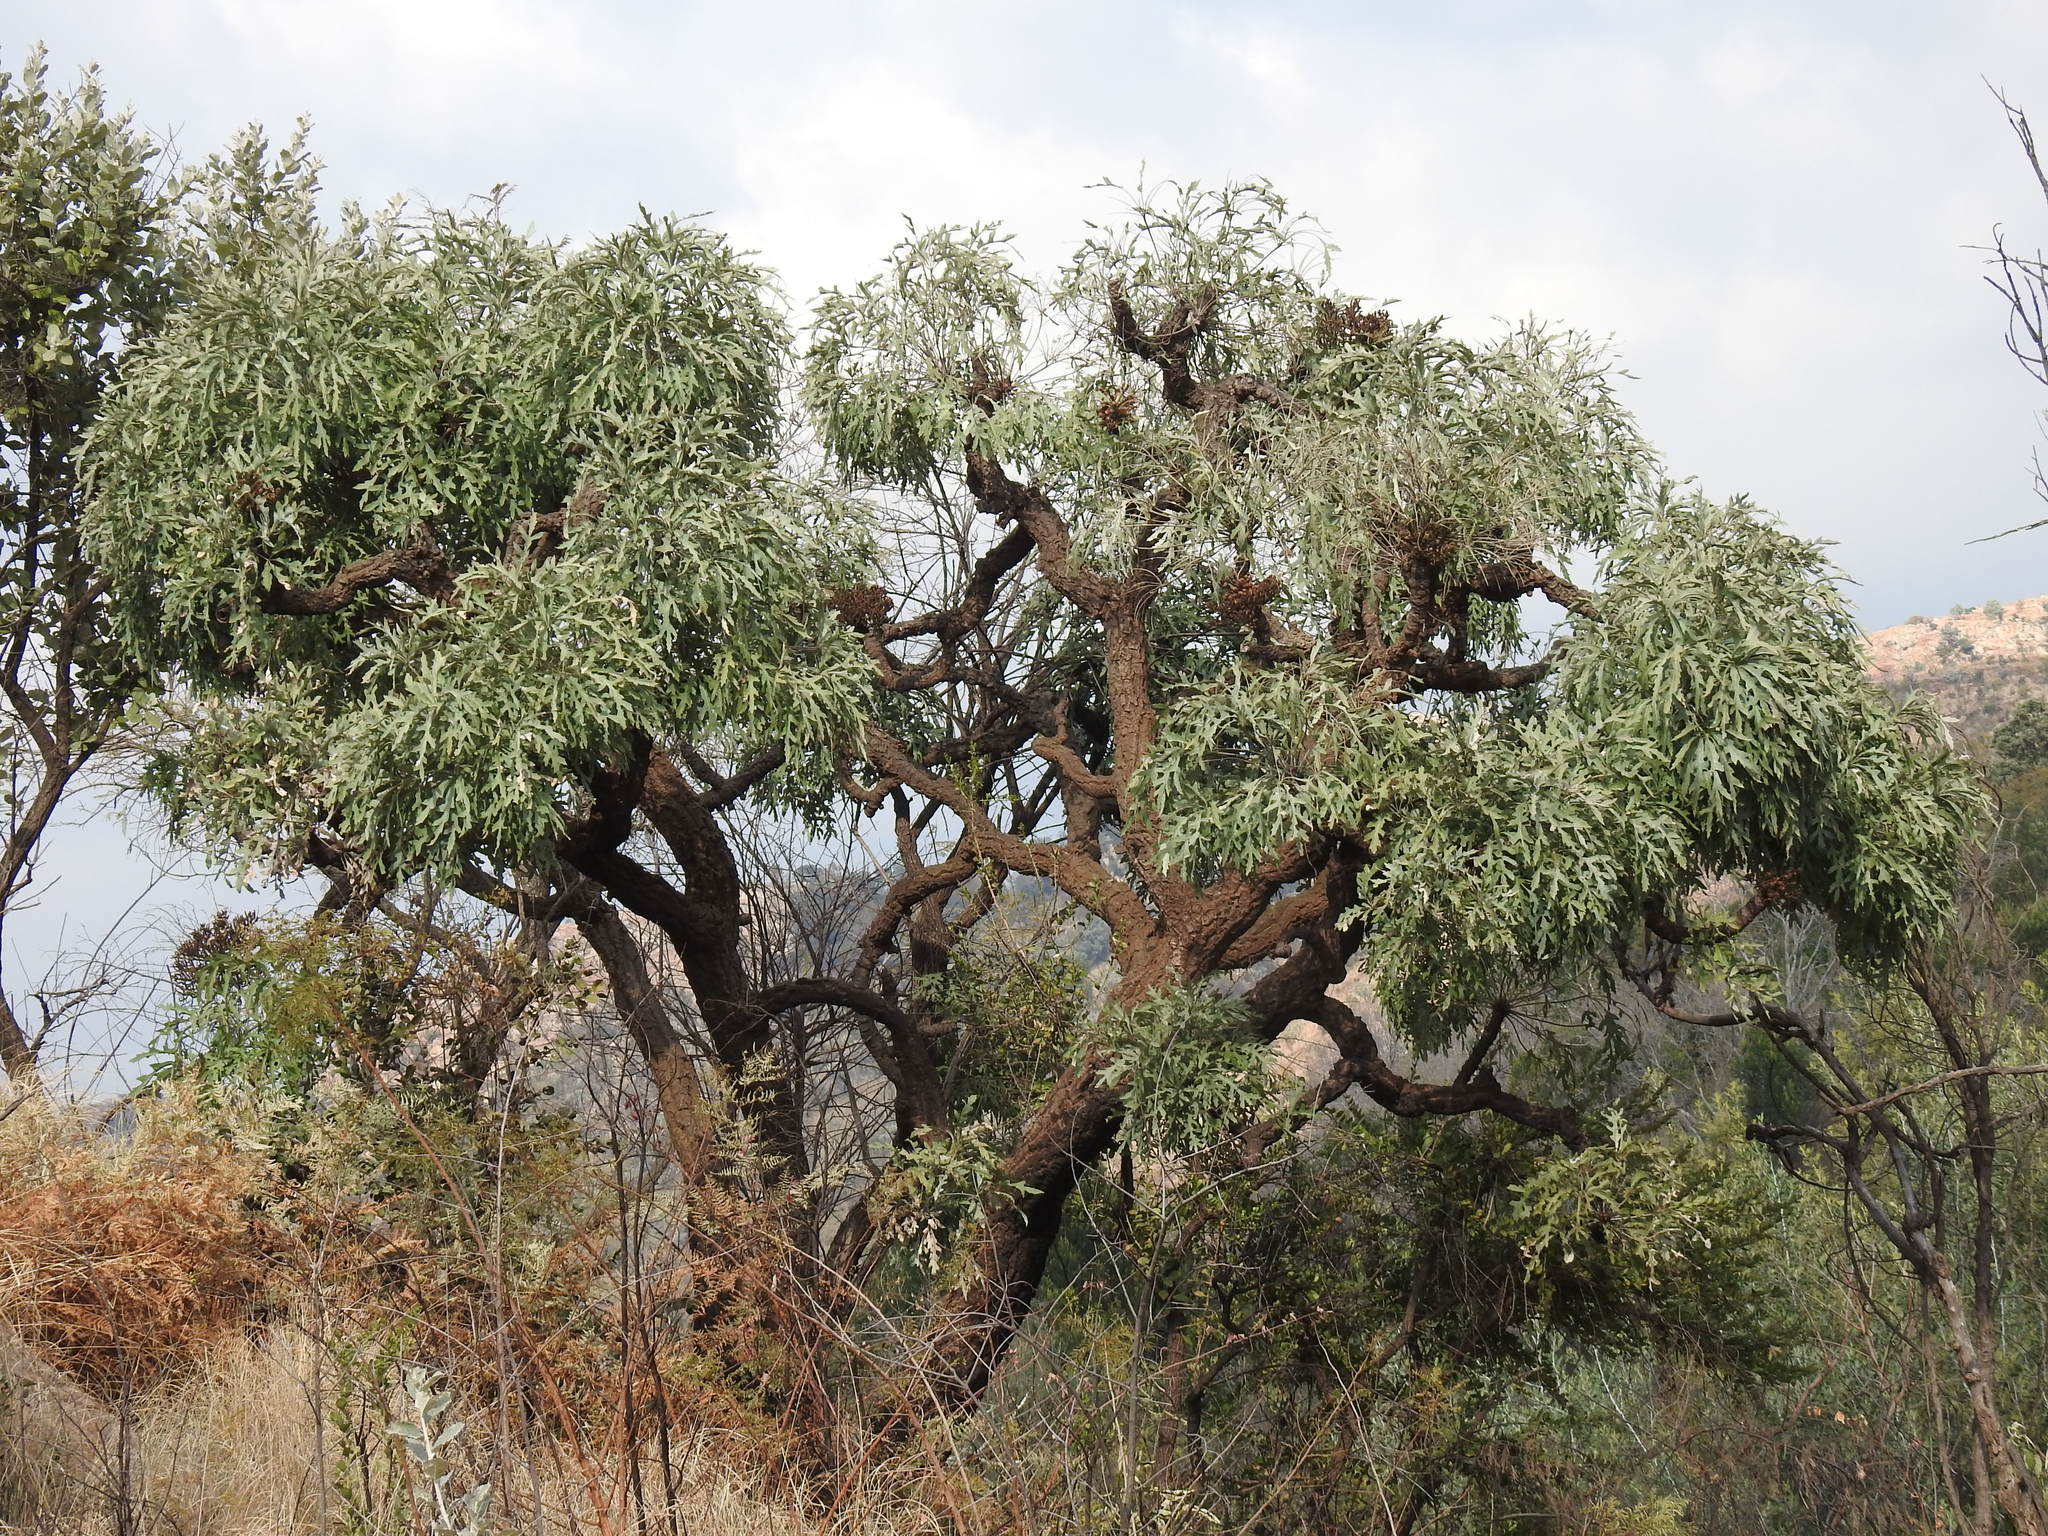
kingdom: Plantae
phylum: Tracheophyta
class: Magnoliopsida
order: Apiales
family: Araliaceae
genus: Cussonia
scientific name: Cussonia paniculata
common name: Cabbagetree
